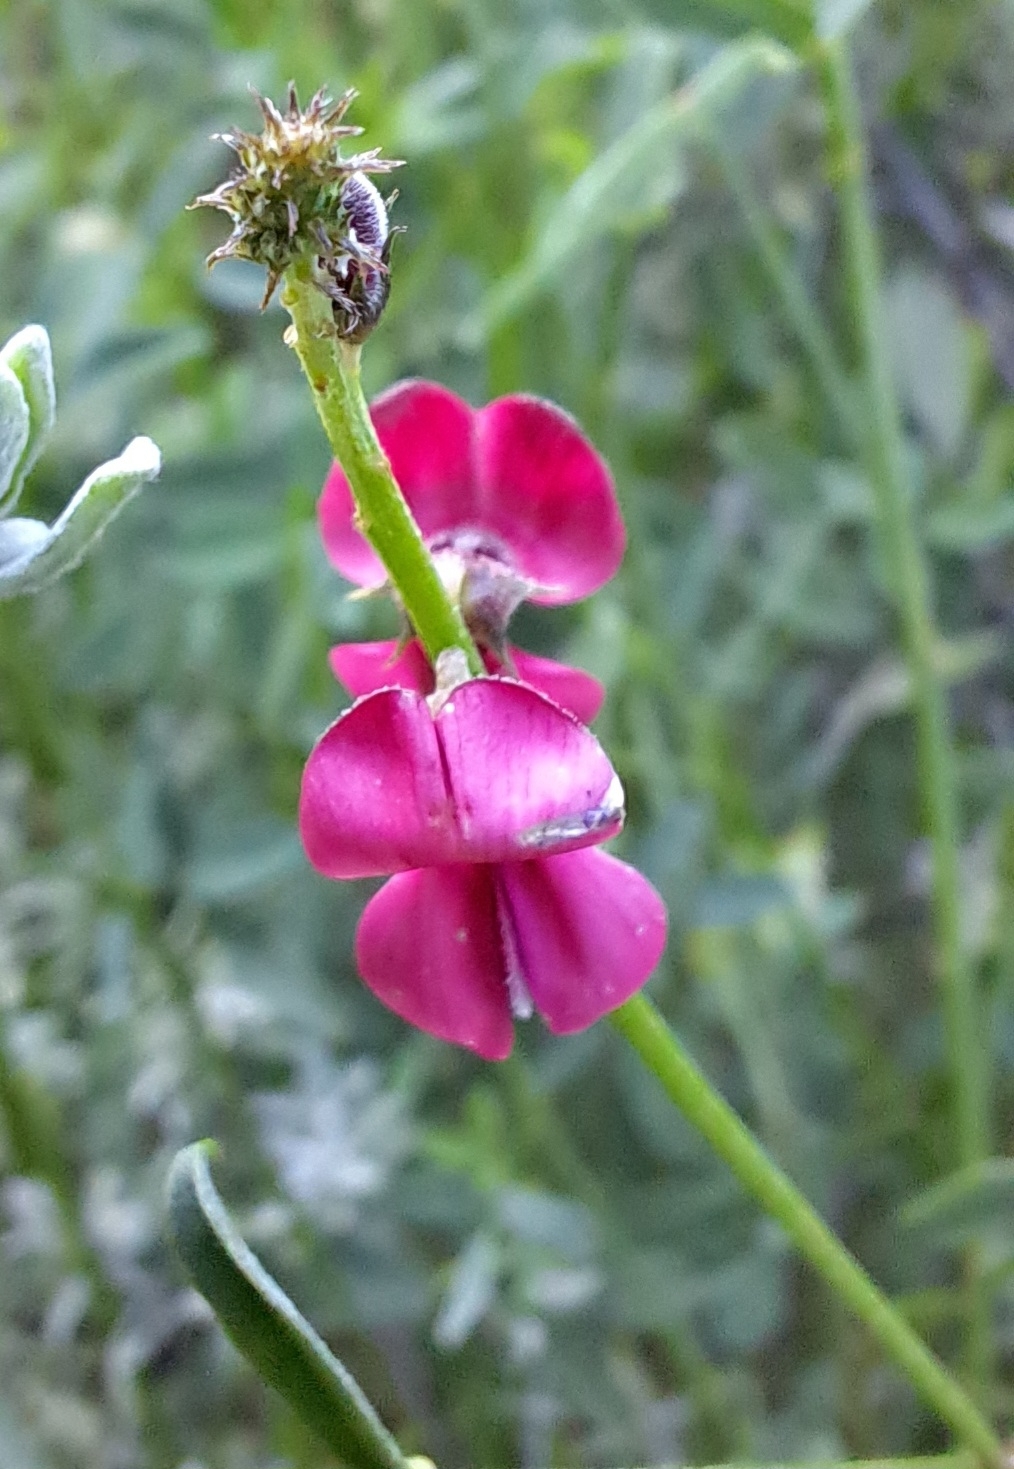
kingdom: Plantae
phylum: Tracheophyta
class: Magnoliopsida
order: Fabales
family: Fabaceae
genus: Indigofera
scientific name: Indigofera heterophylla
